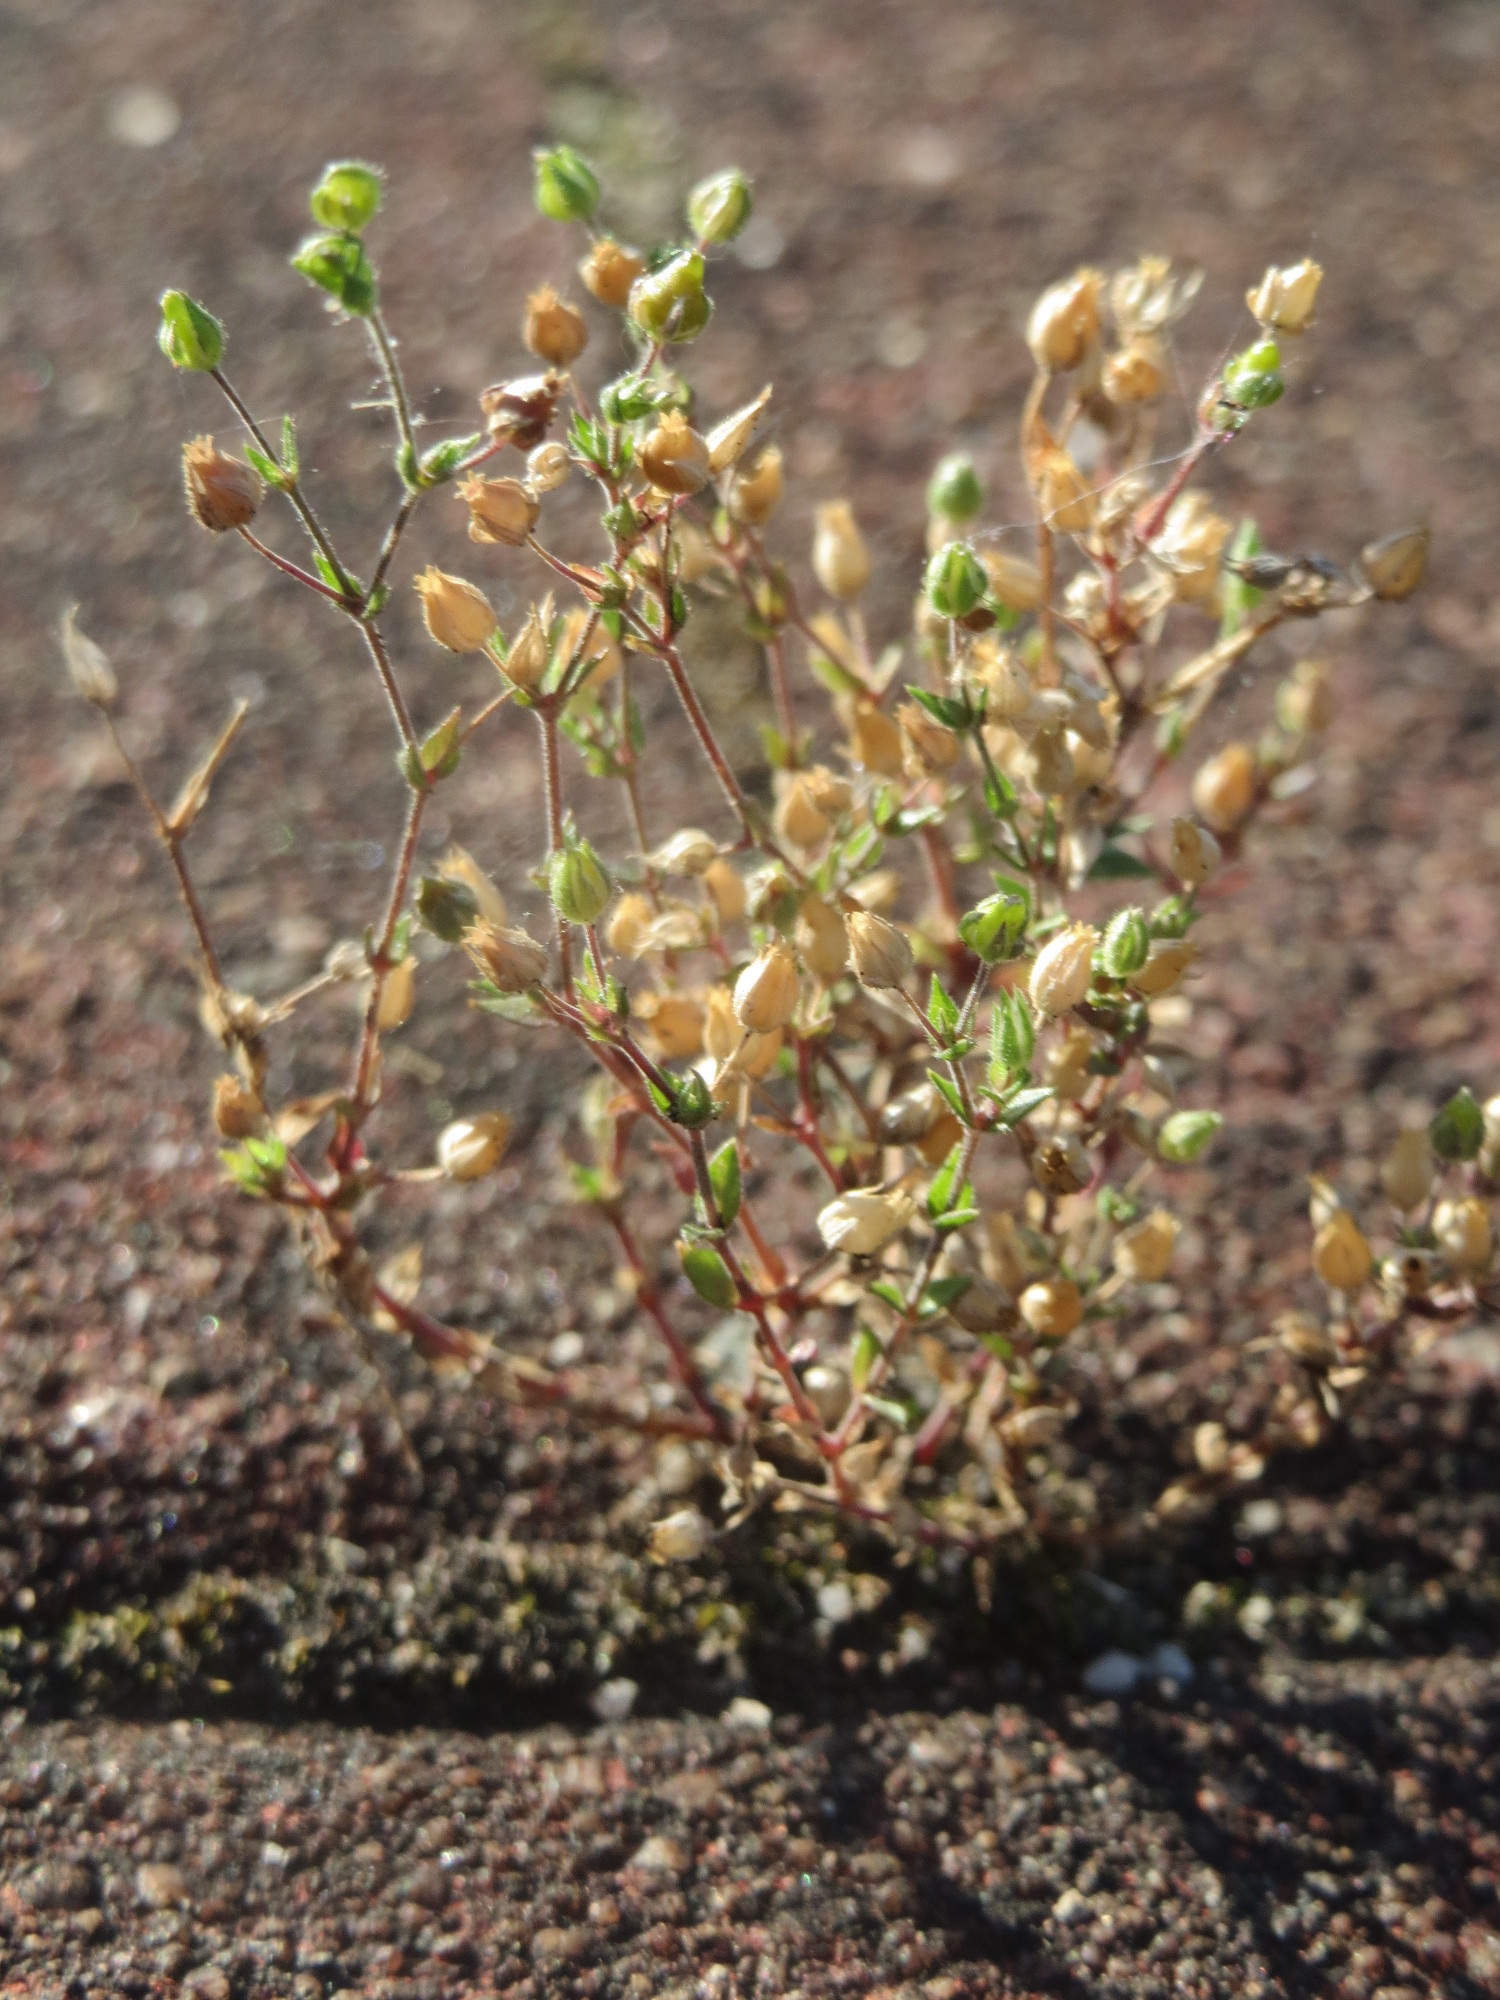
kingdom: Plantae
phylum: Tracheophyta
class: Magnoliopsida
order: Caryophyllales
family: Caryophyllaceae
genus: Arenaria
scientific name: Arenaria serpyllifolia
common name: Thyme-leaved sandwort
